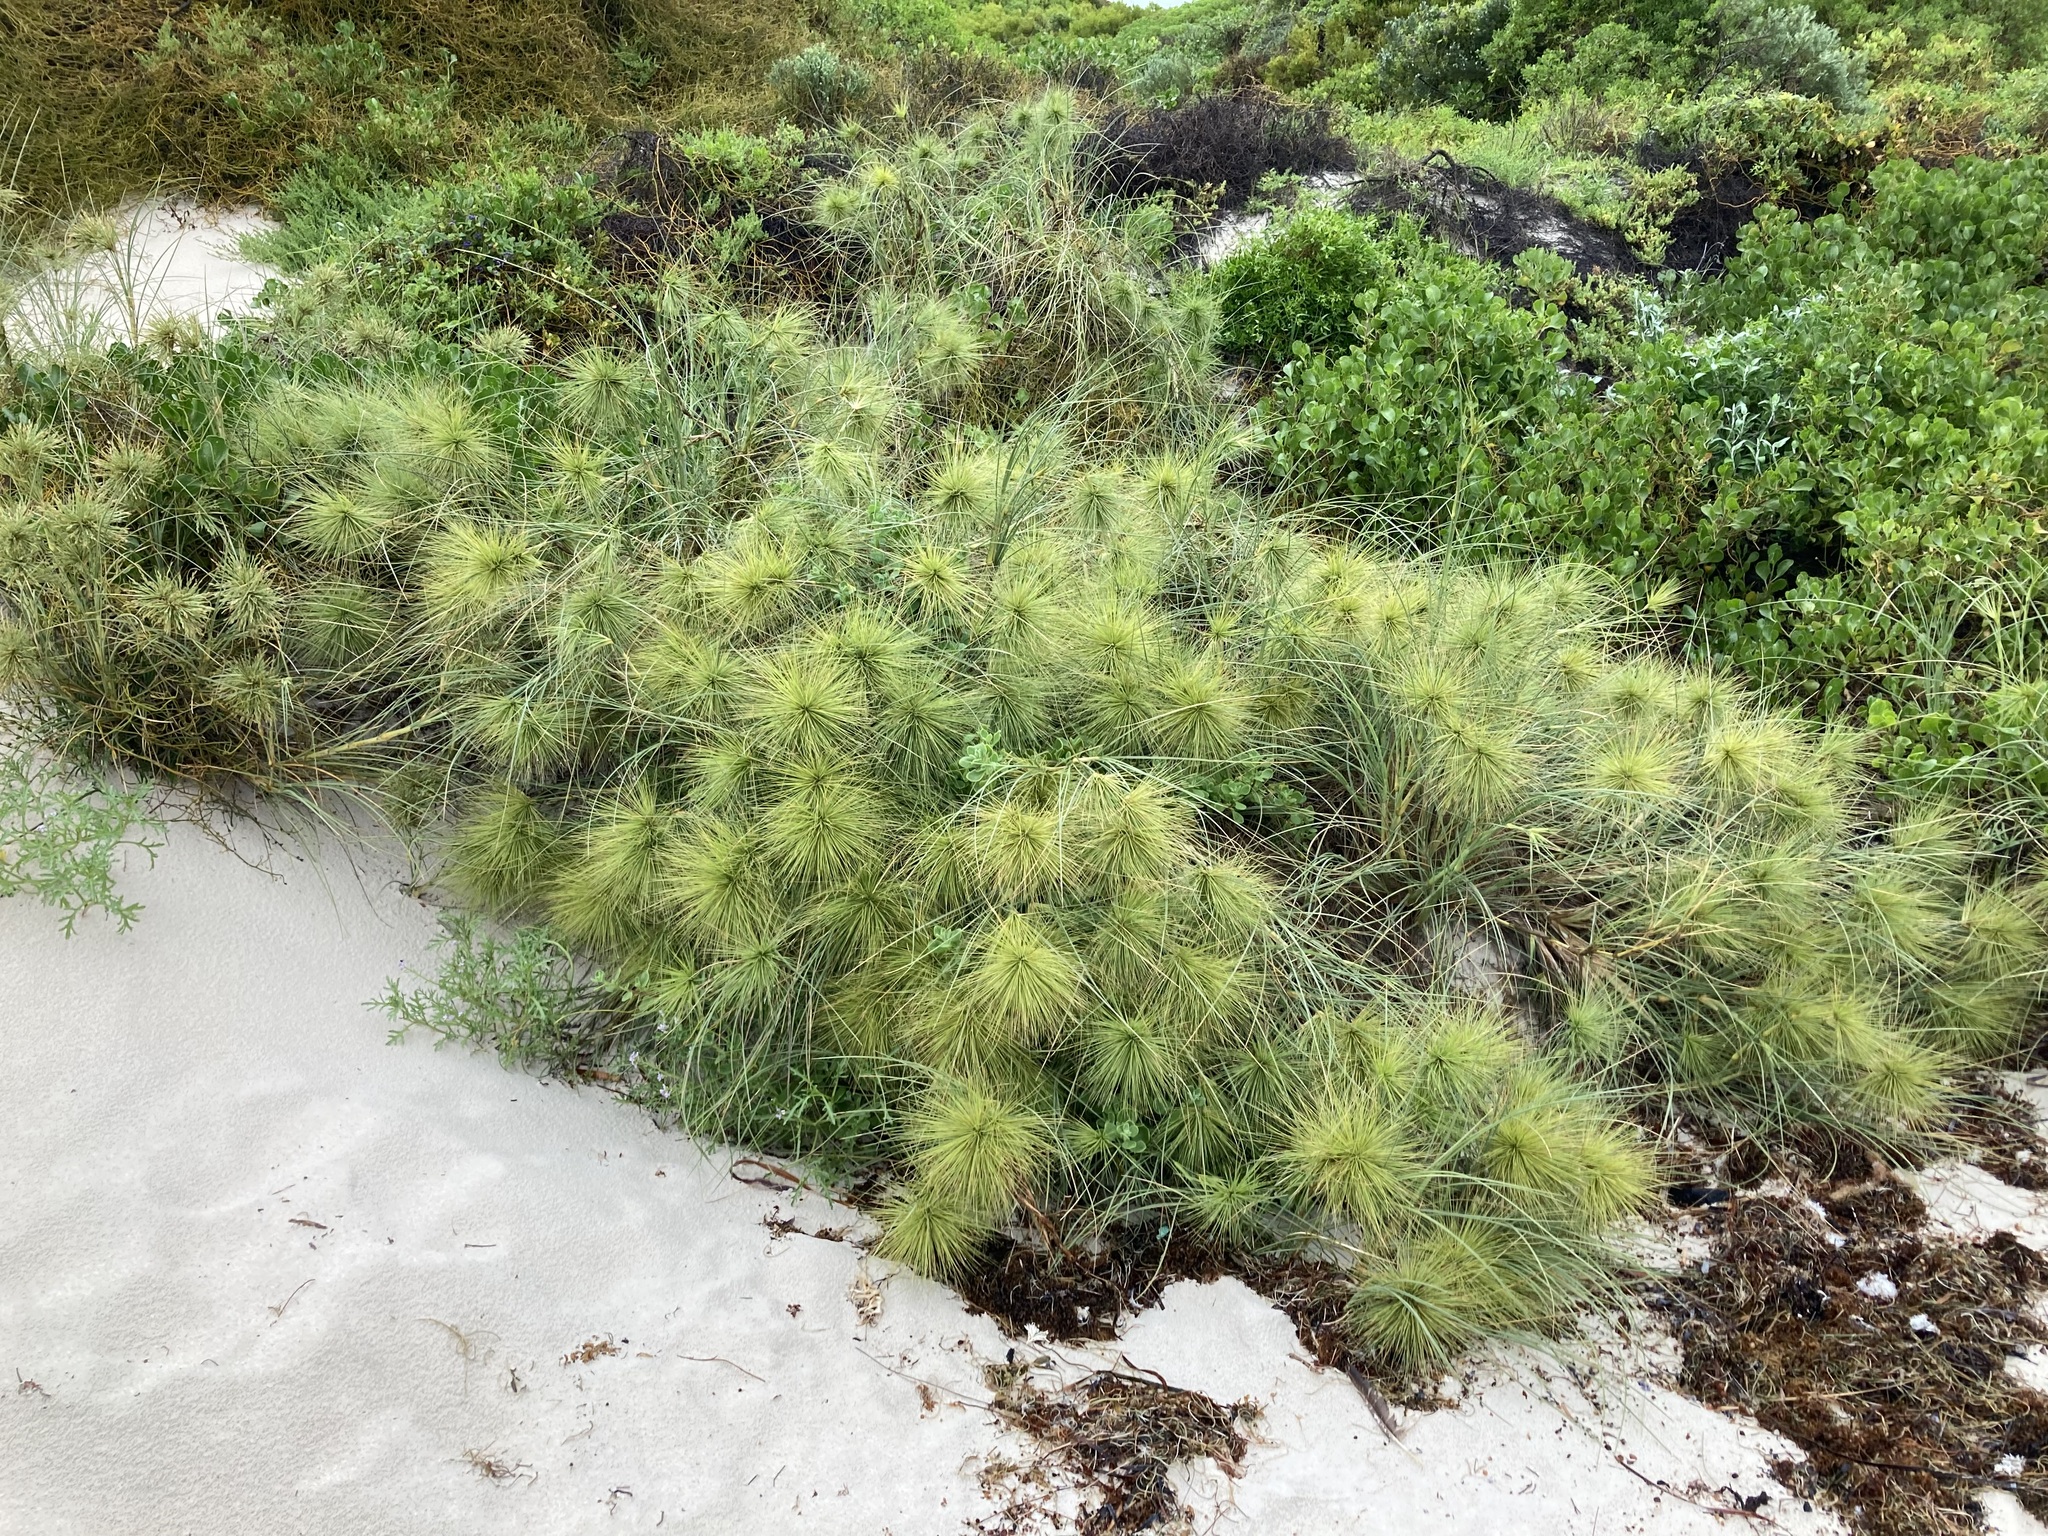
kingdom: Plantae
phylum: Tracheophyta
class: Liliopsida
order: Poales
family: Poaceae
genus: Spinifex
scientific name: Spinifex longifolius
